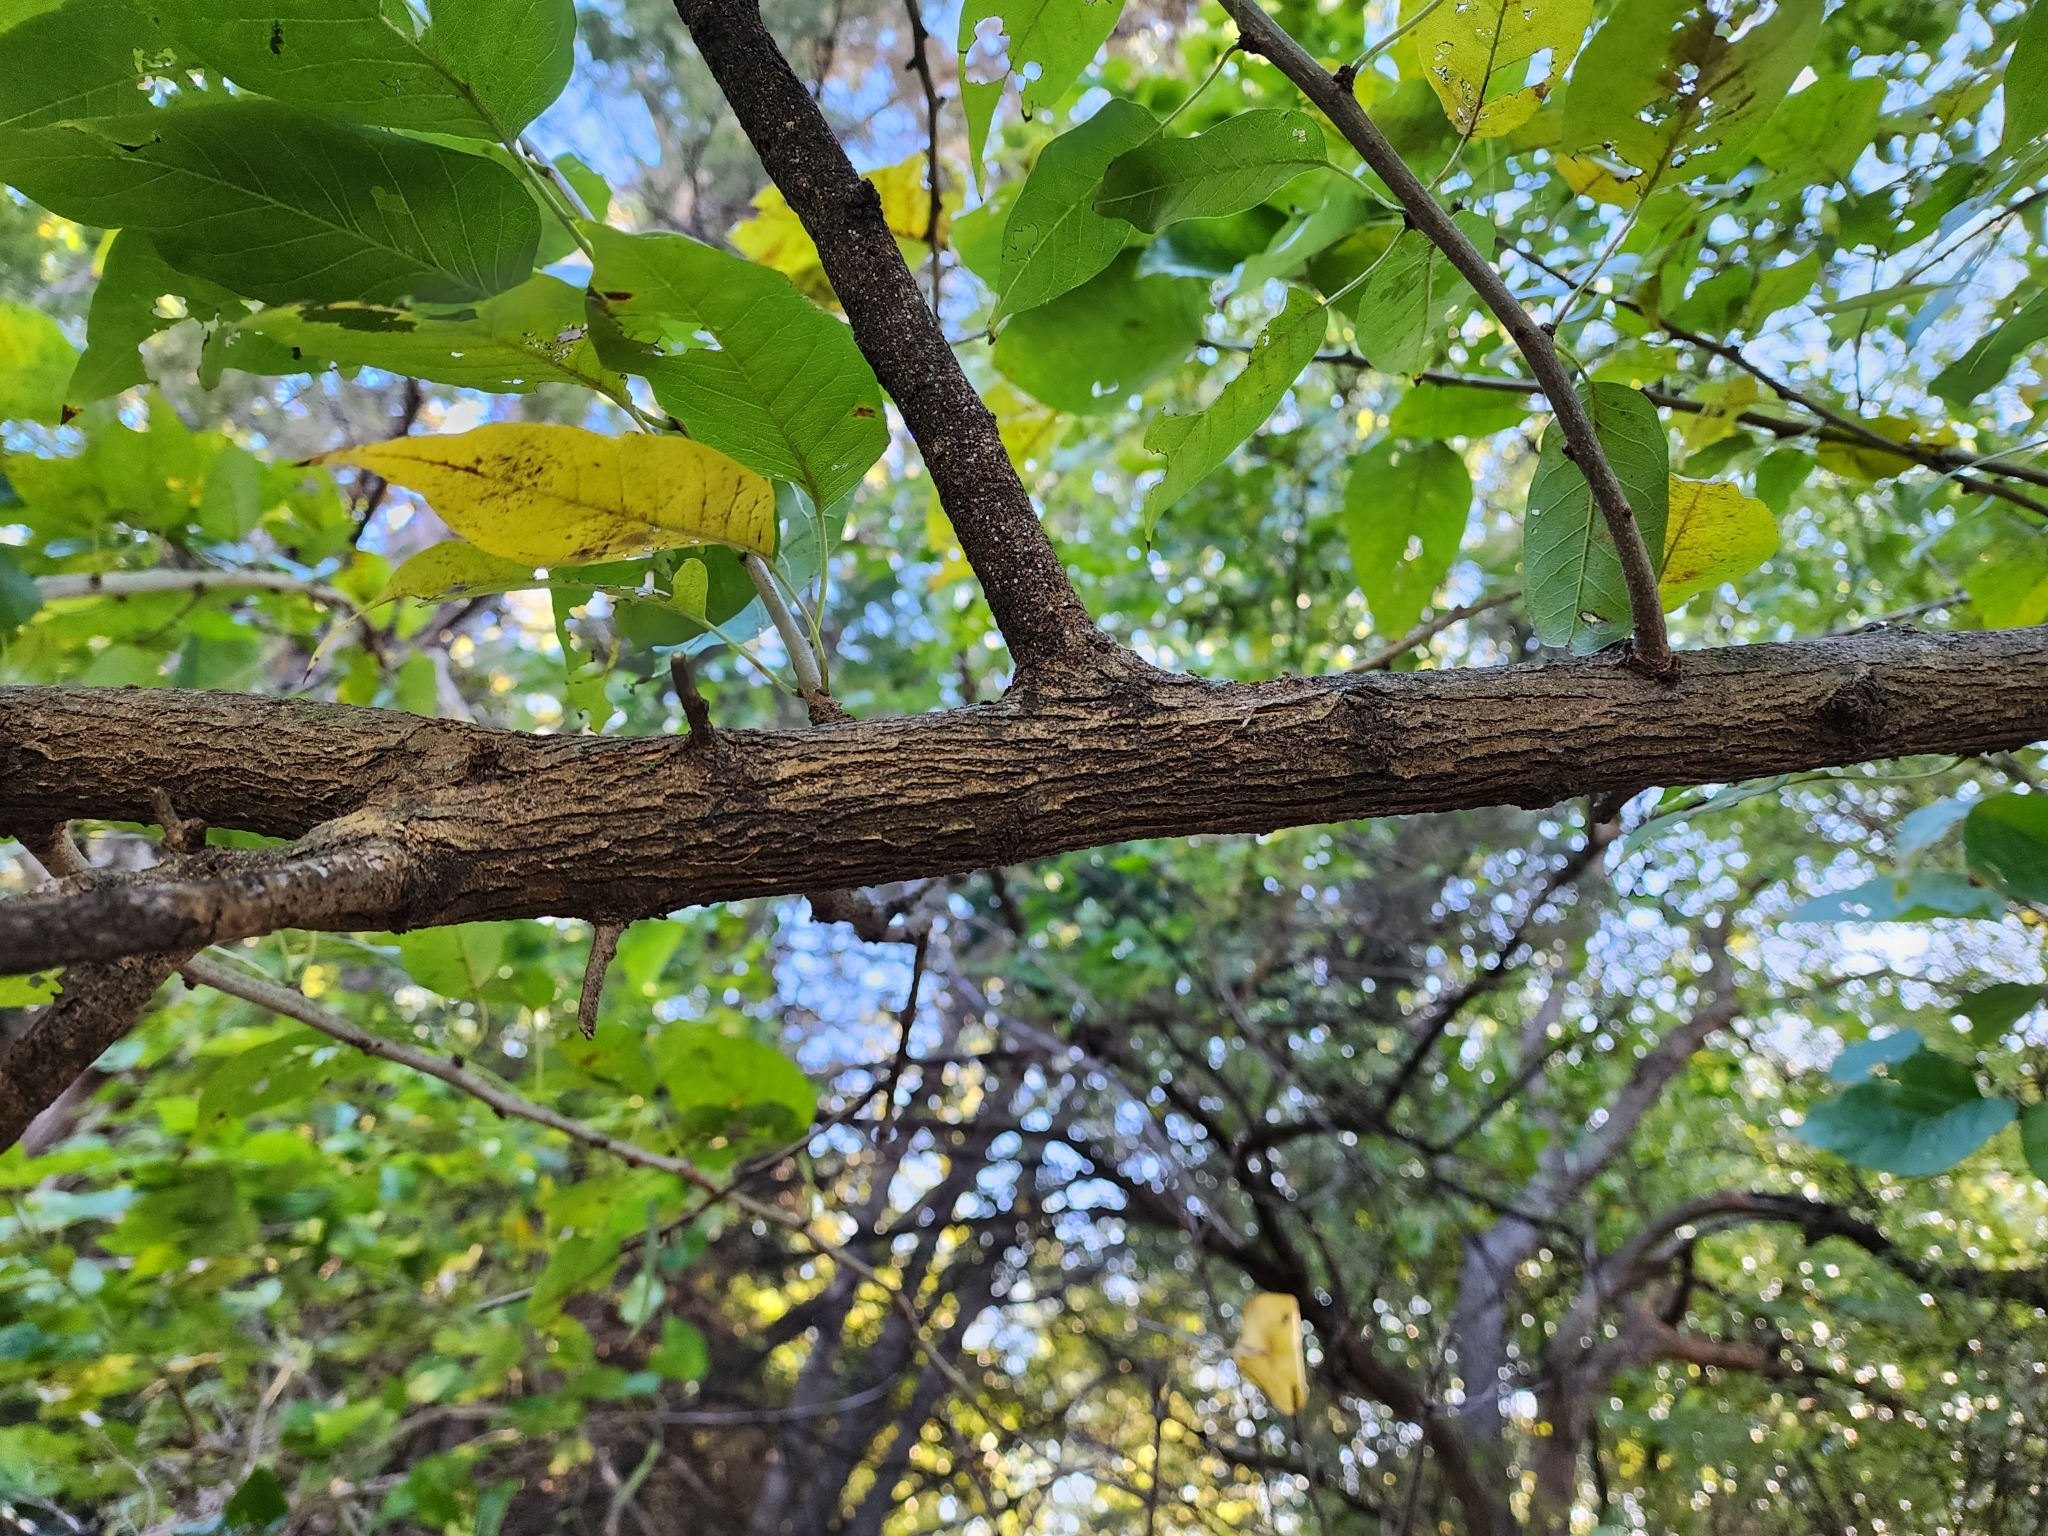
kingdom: Plantae
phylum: Tracheophyta
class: Magnoliopsida
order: Rosales
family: Cannabaceae
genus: Celtis
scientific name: Celtis occidentalis
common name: Common hackberry
